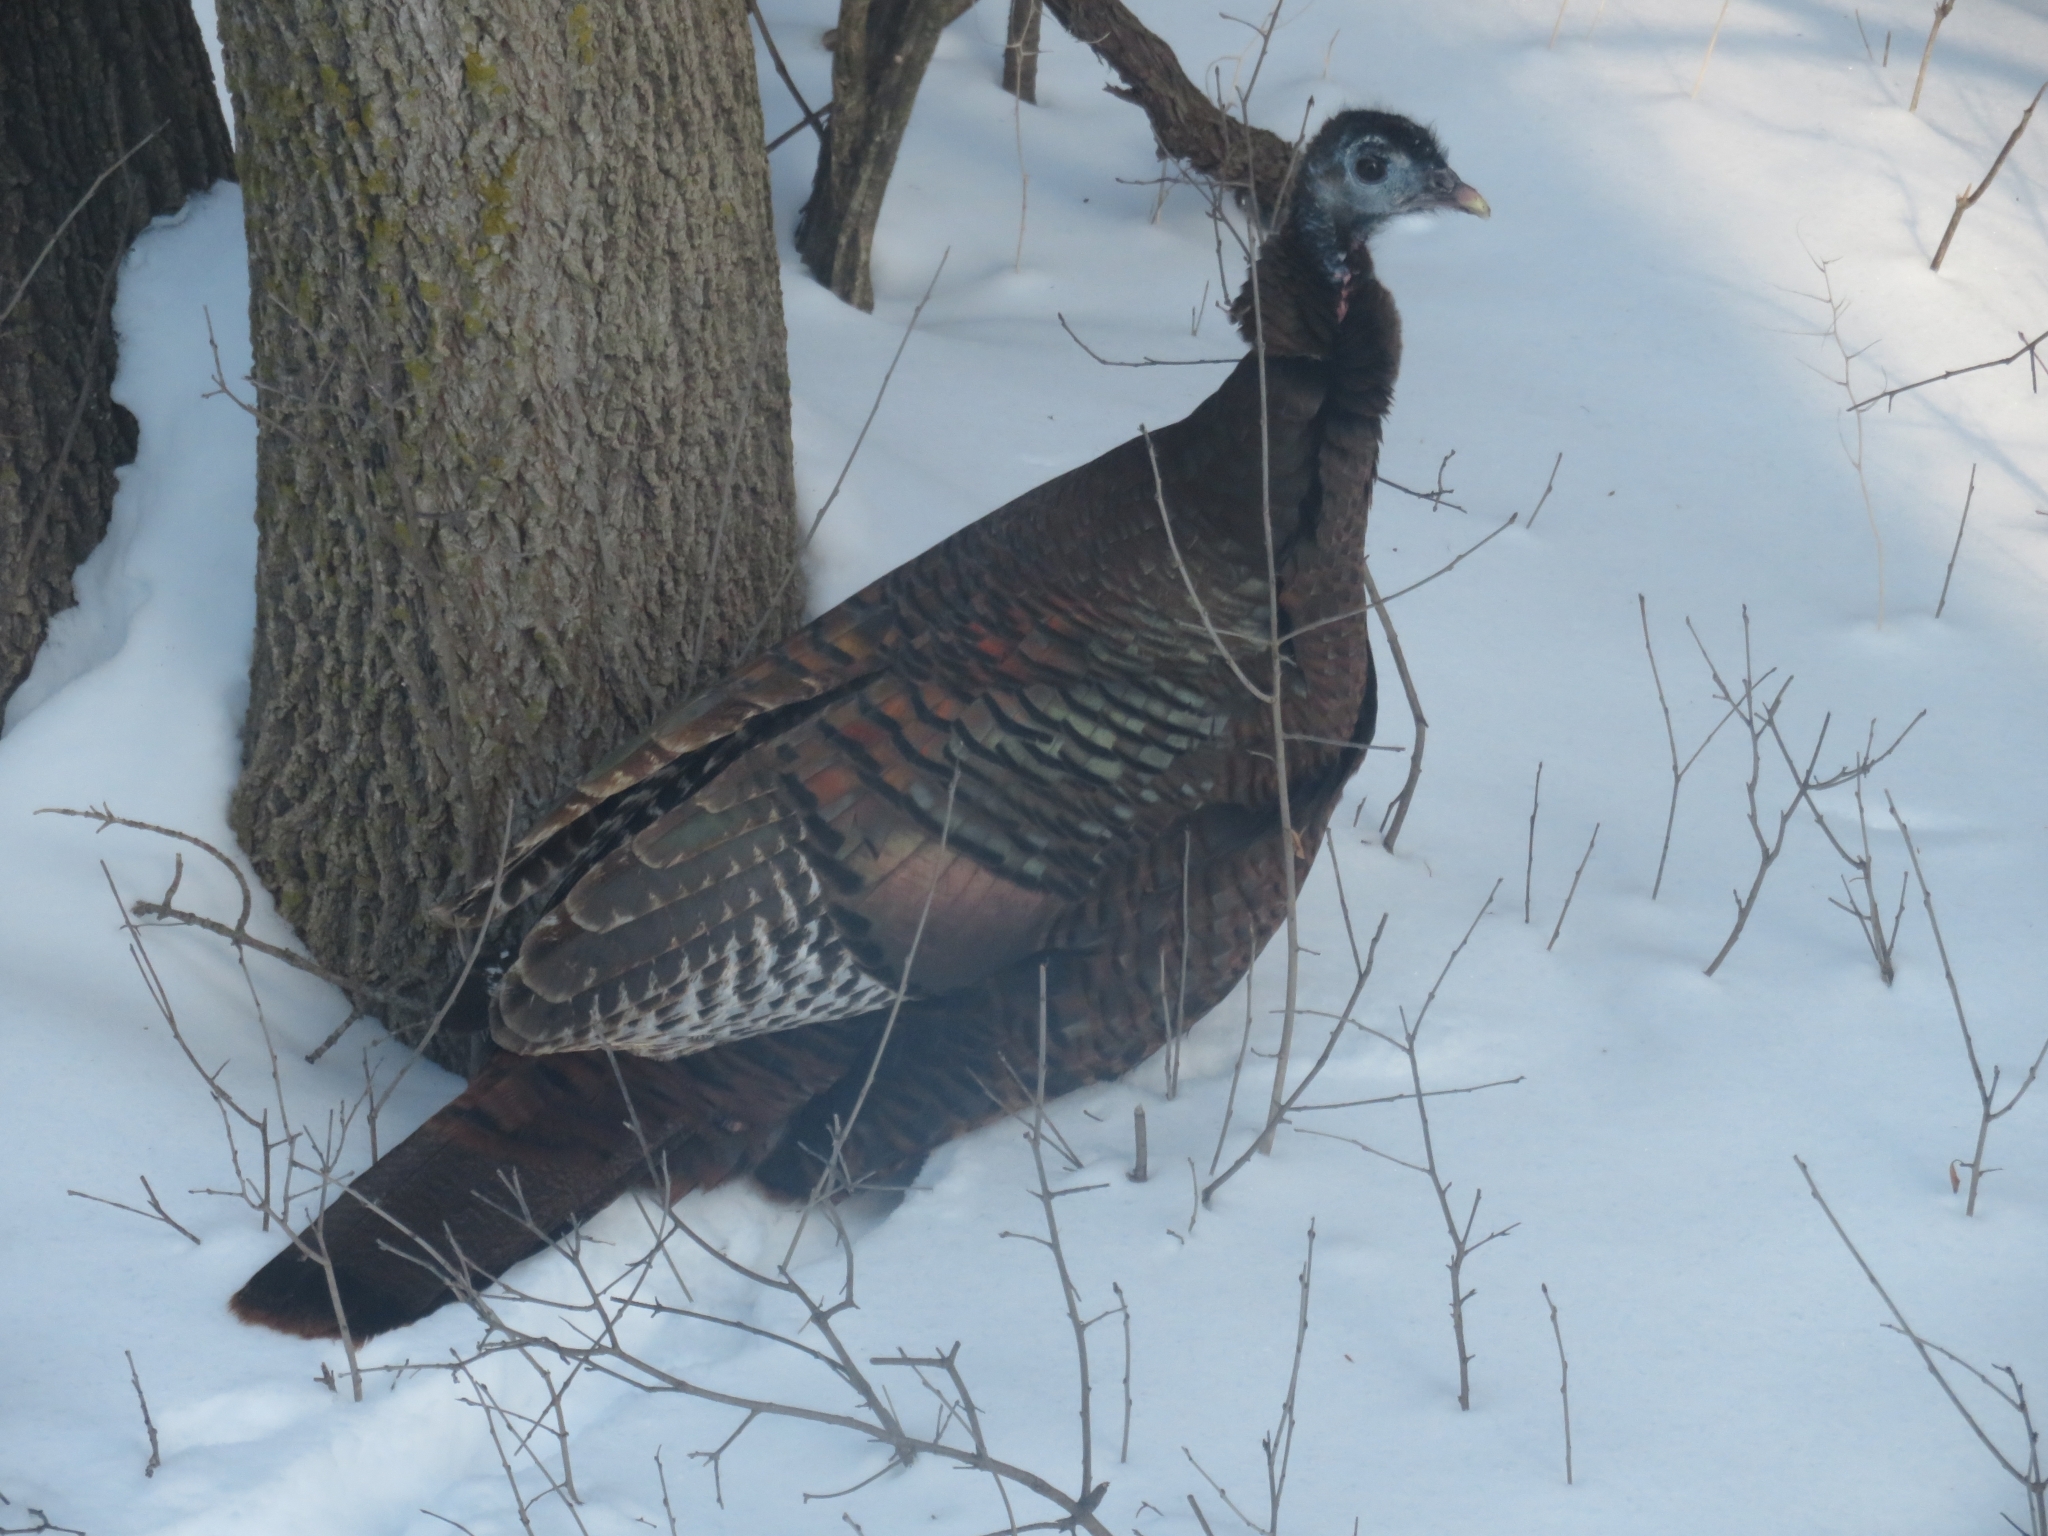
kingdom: Animalia
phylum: Chordata
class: Aves
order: Galliformes
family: Phasianidae
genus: Meleagris
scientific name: Meleagris gallopavo
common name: Wild turkey
